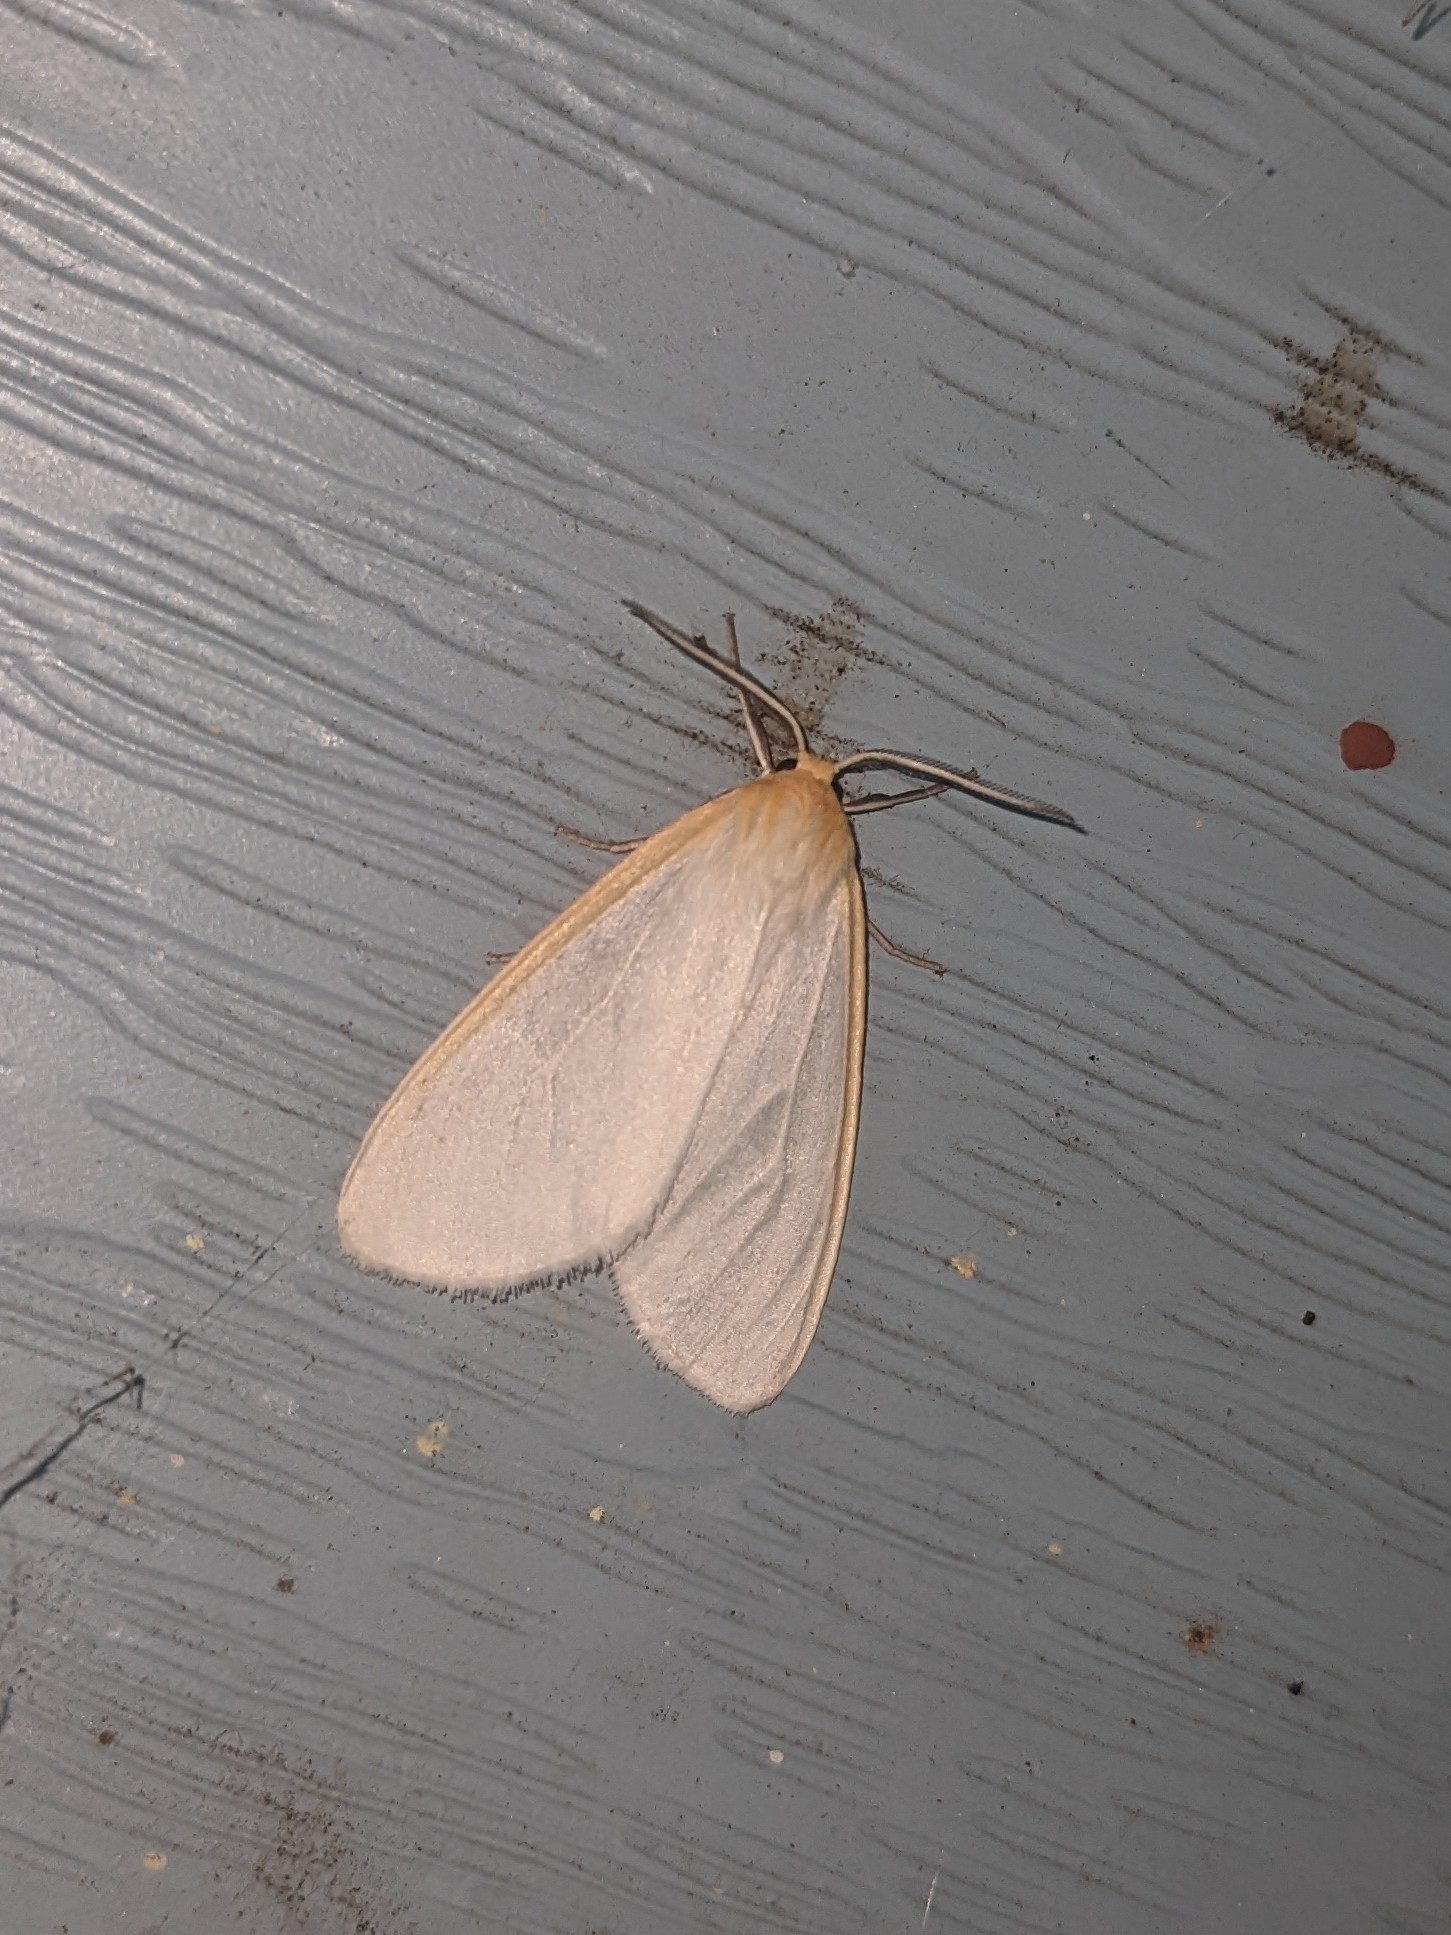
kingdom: Animalia
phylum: Arthropoda
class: Insecta
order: Lepidoptera
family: Erebidae
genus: Cycnia
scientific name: Cycnia tenera
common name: Delicate cycnia moth
